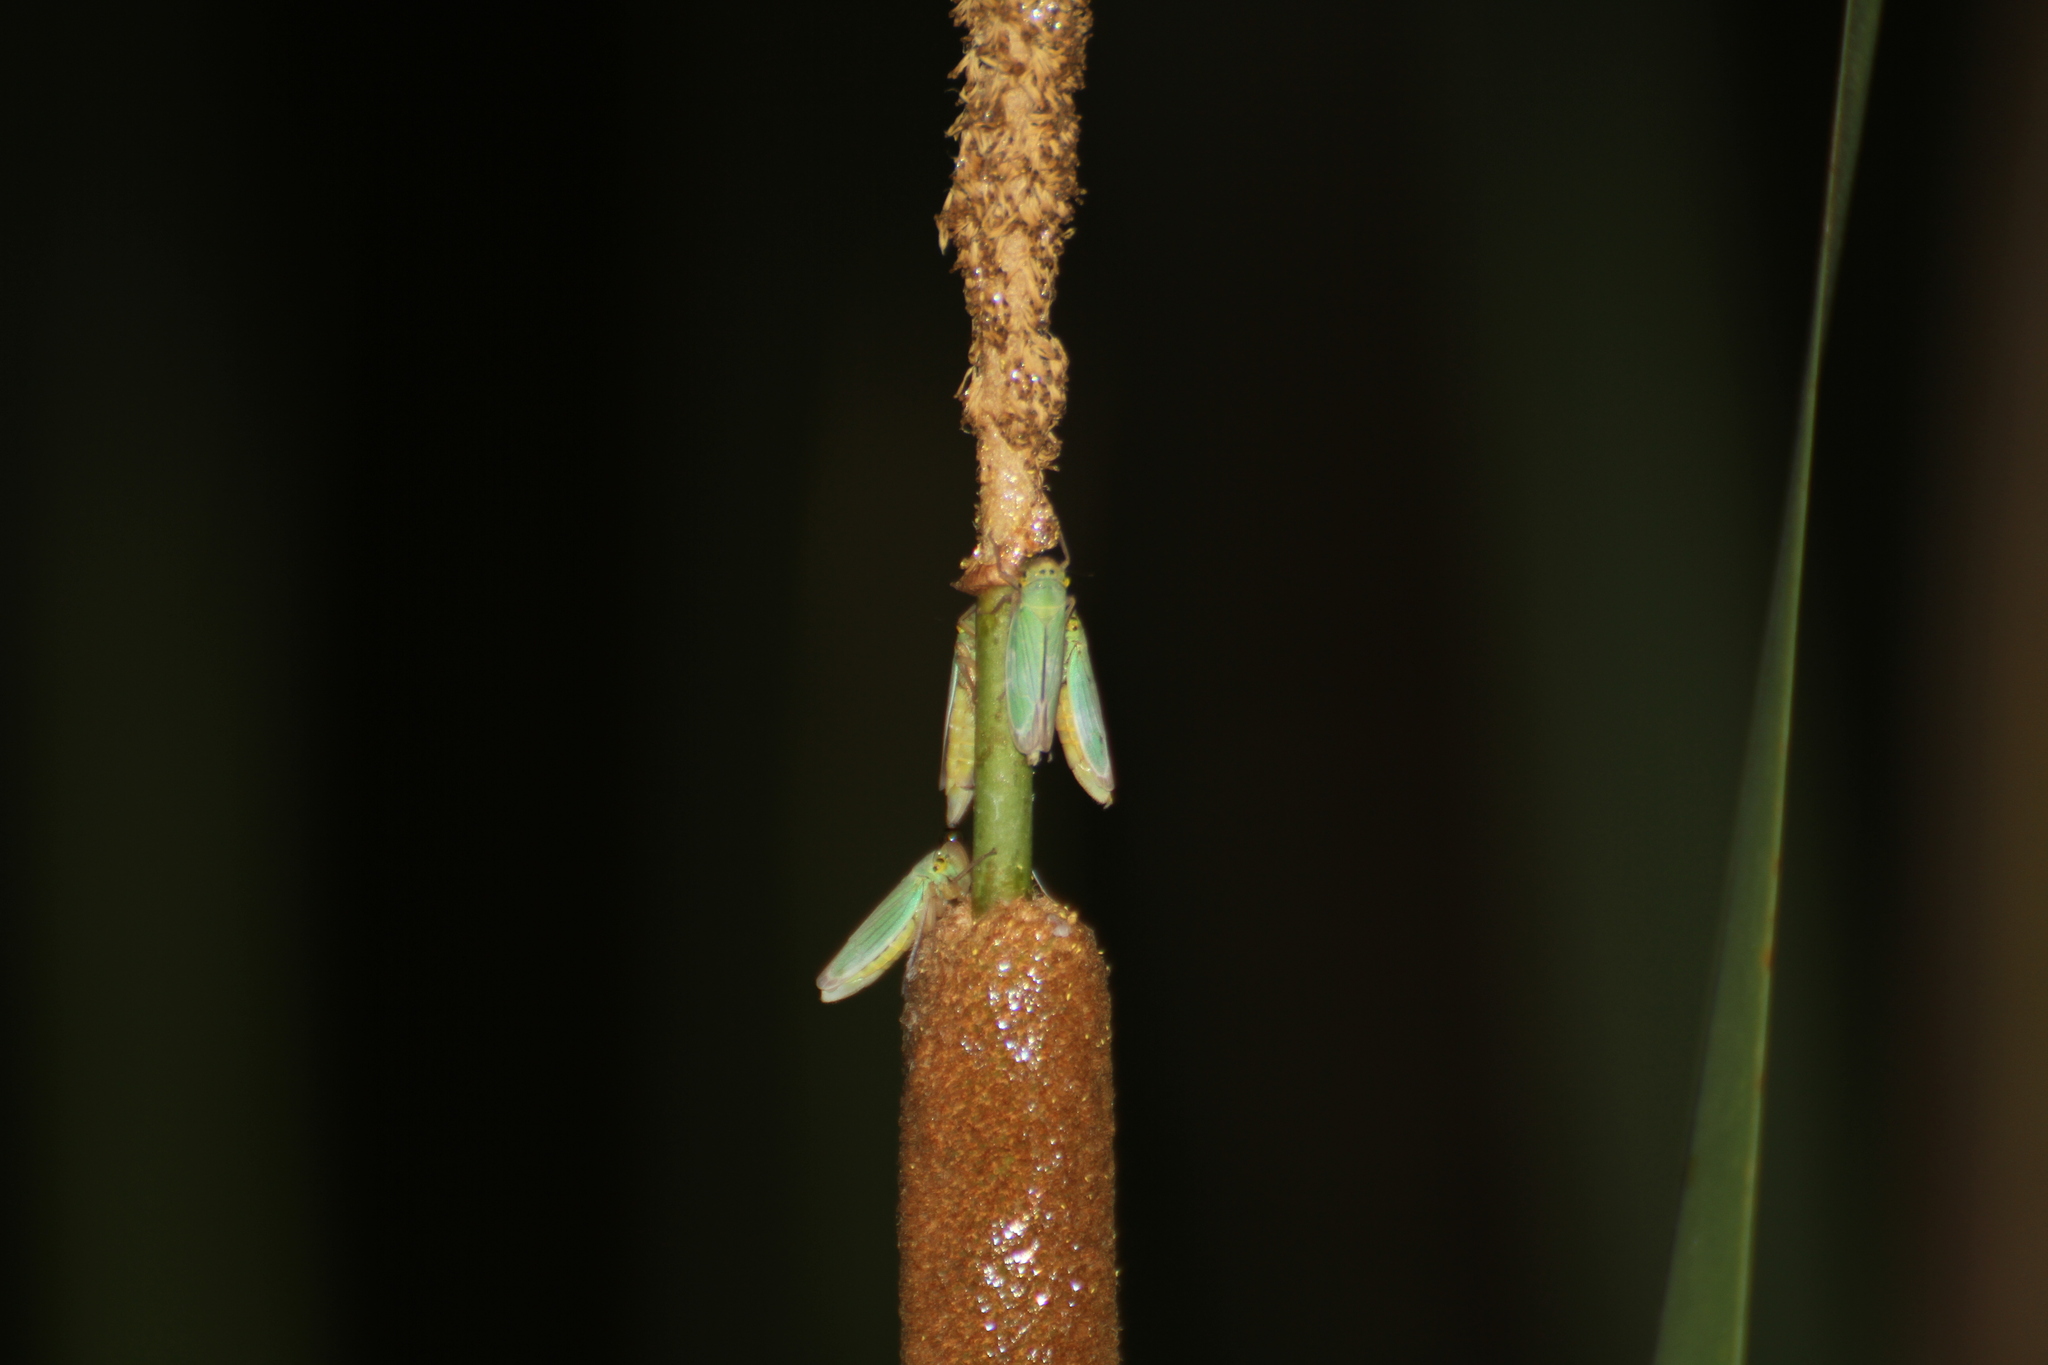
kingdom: Animalia
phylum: Arthropoda
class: Insecta
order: Hemiptera
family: Cicadellidae
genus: Cicadella
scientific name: Cicadella viridis
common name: Leafhopper
